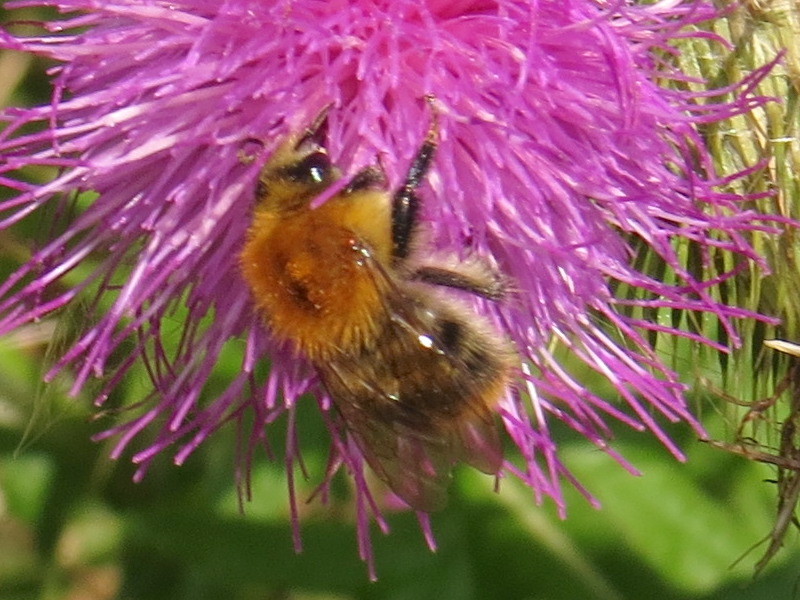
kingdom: Animalia
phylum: Arthropoda
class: Insecta
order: Hymenoptera
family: Apidae
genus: Bombus
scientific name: Bombus pascuorum
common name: Common carder bee
